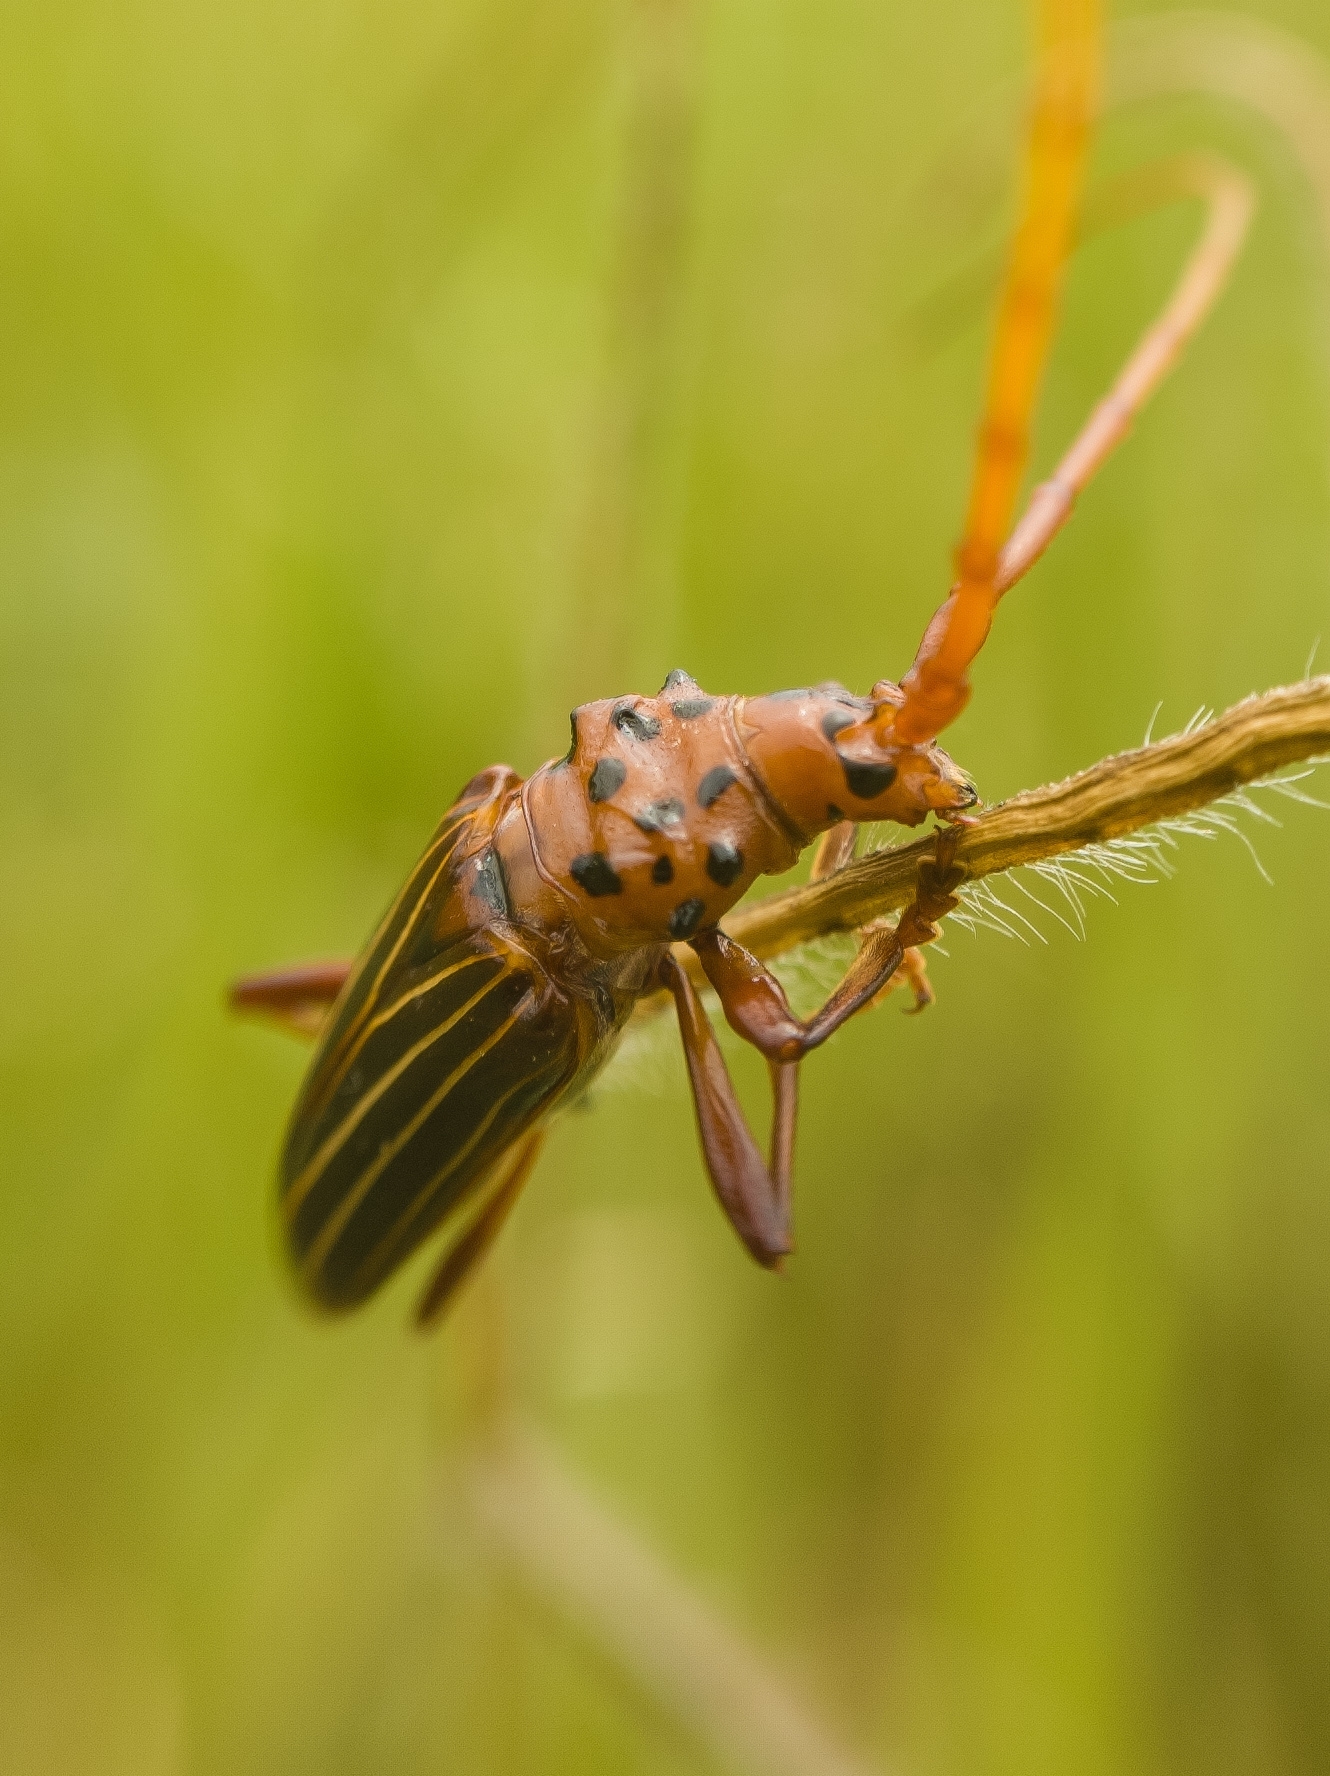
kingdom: Animalia
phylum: Arthropoda
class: Insecta
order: Coleoptera
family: Cerambycidae
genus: Chydarteres
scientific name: Chydarteres striatus
